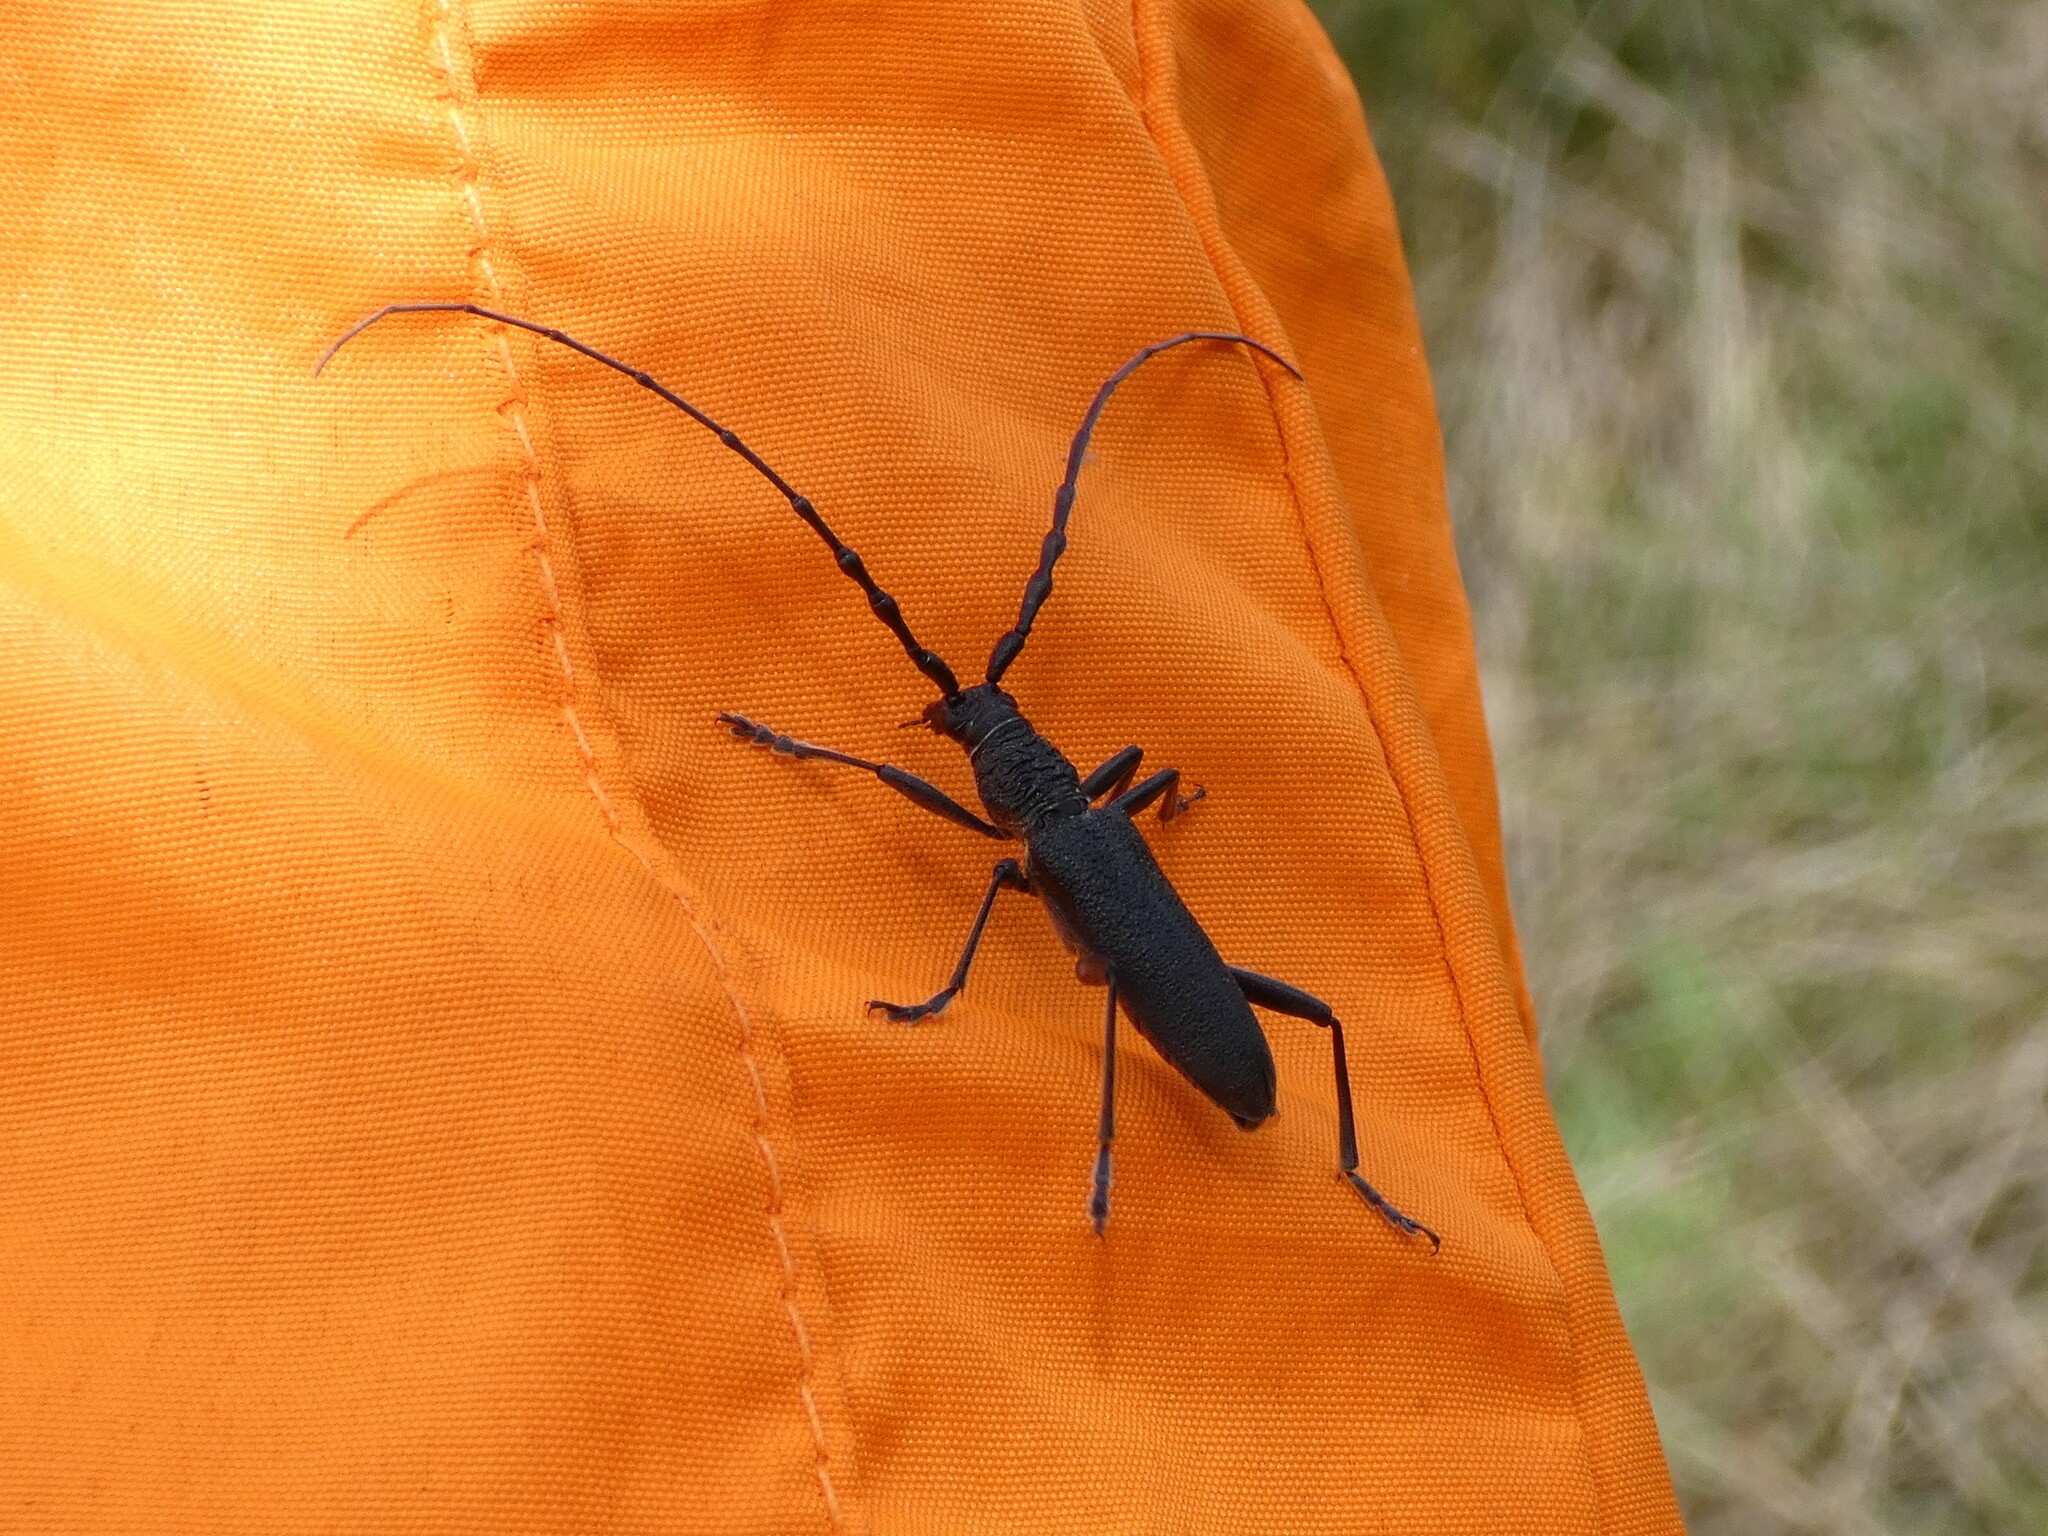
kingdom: Animalia
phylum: Arthropoda
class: Insecta
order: Coleoptera
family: Cerambycidae
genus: Cerambyx
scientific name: Cerambyx scopolii
